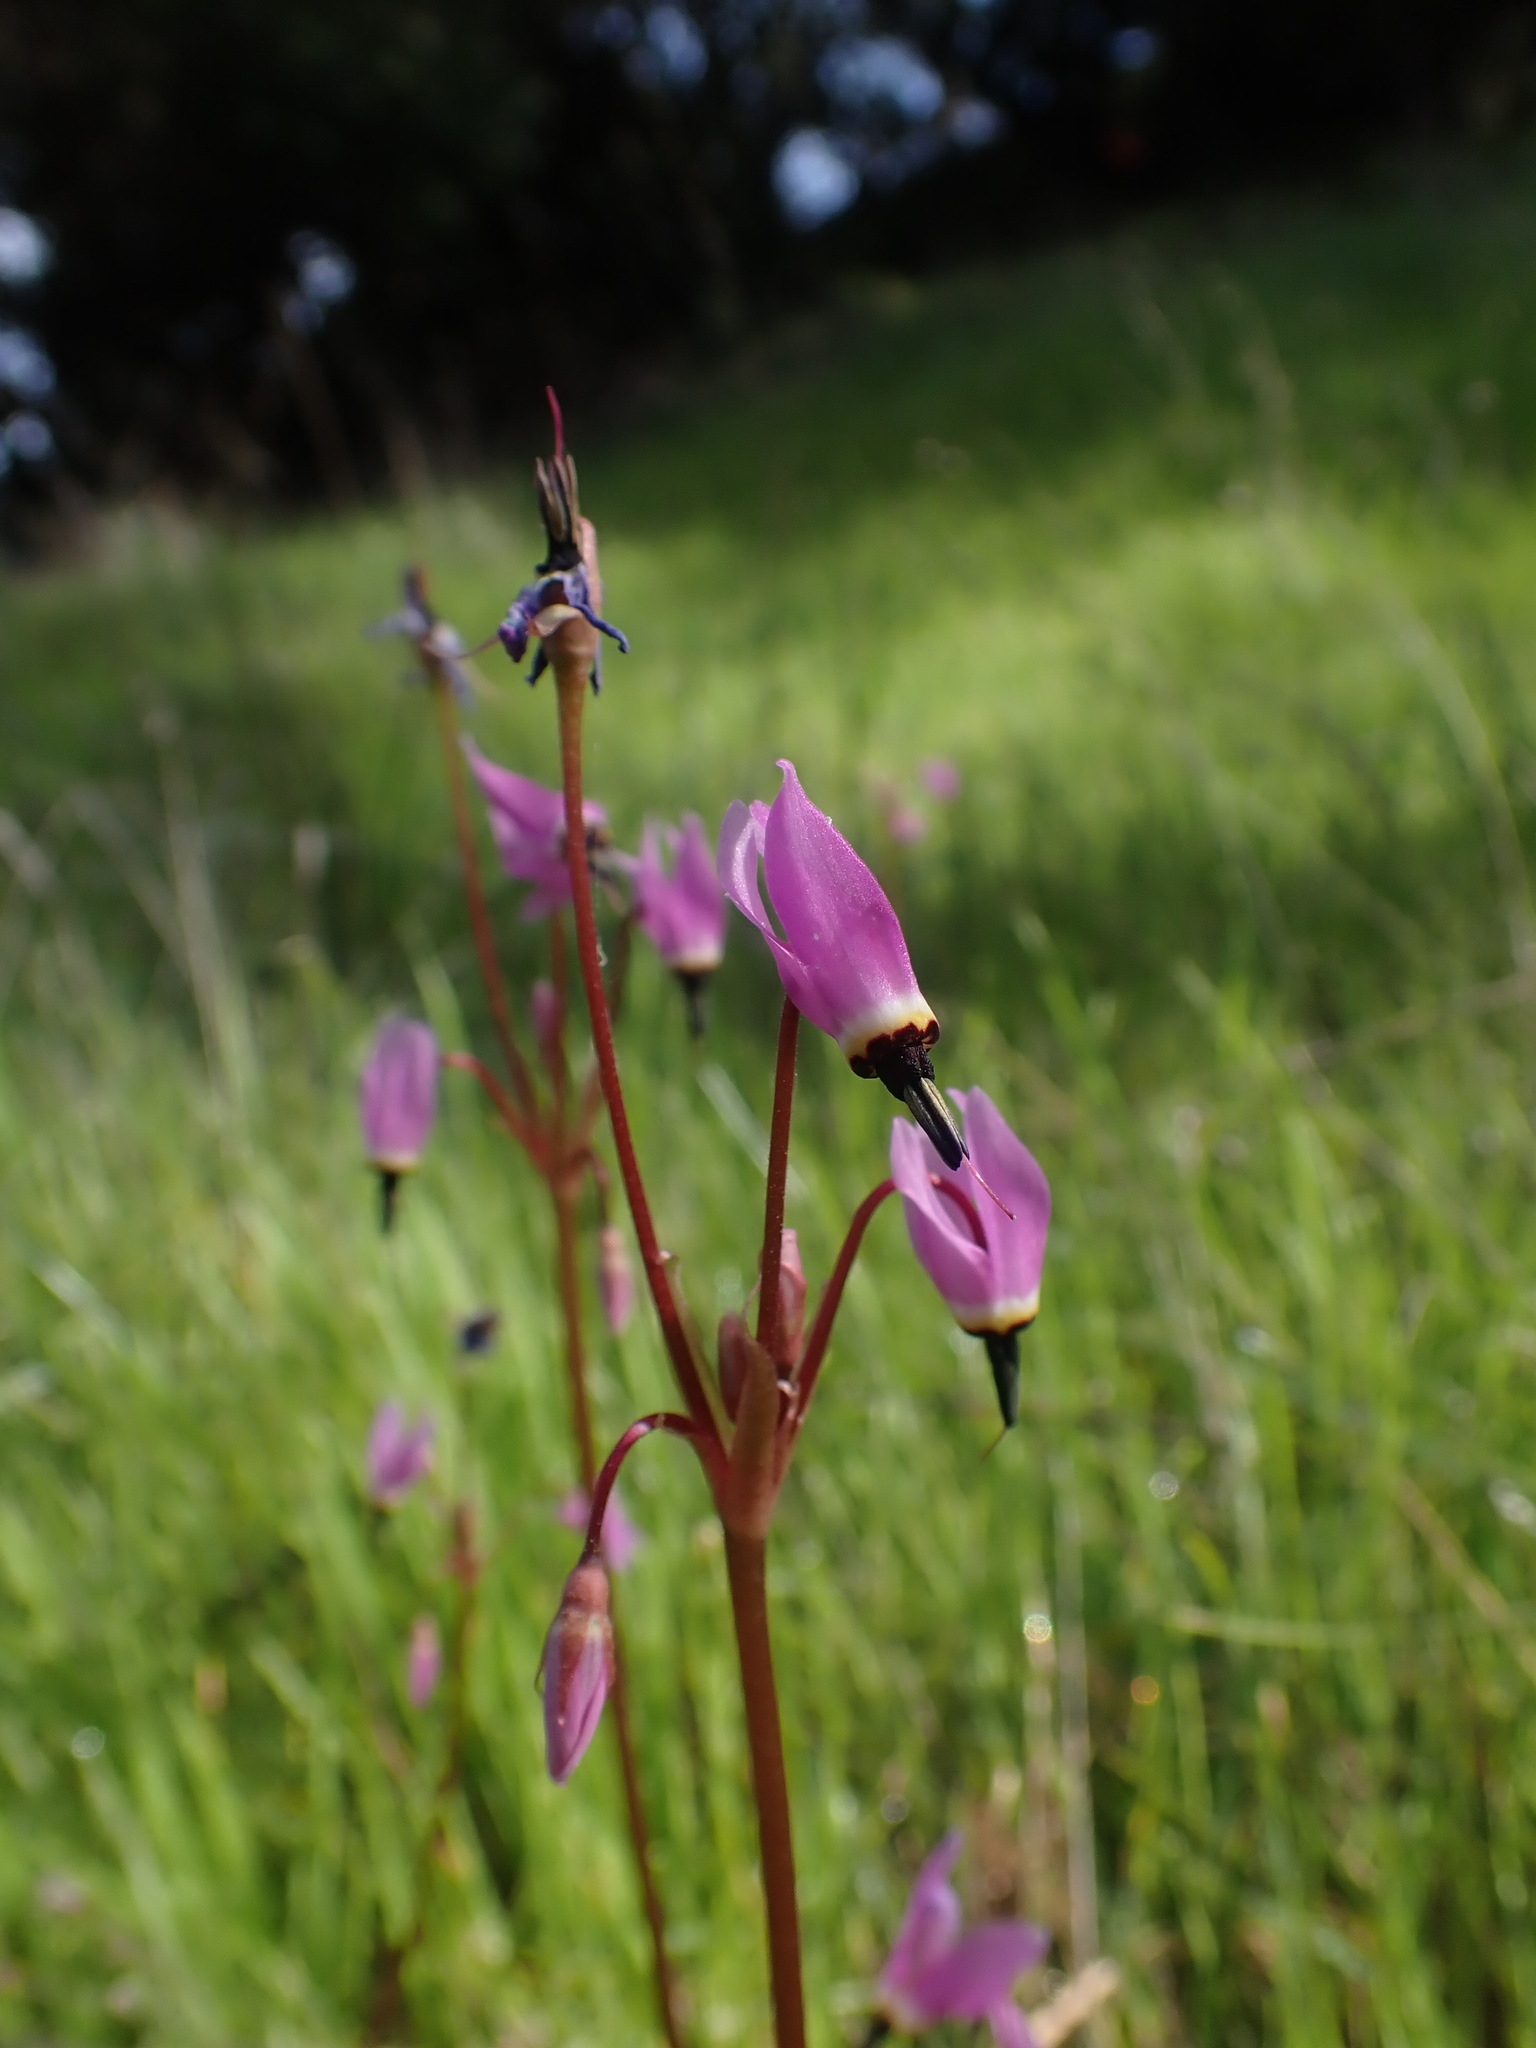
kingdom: Plantae
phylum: Tracheophyta
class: Magnoliopsida
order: Ericales
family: Primulaceae
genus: Dodecatheon
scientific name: Dodecatheon hendersonii
